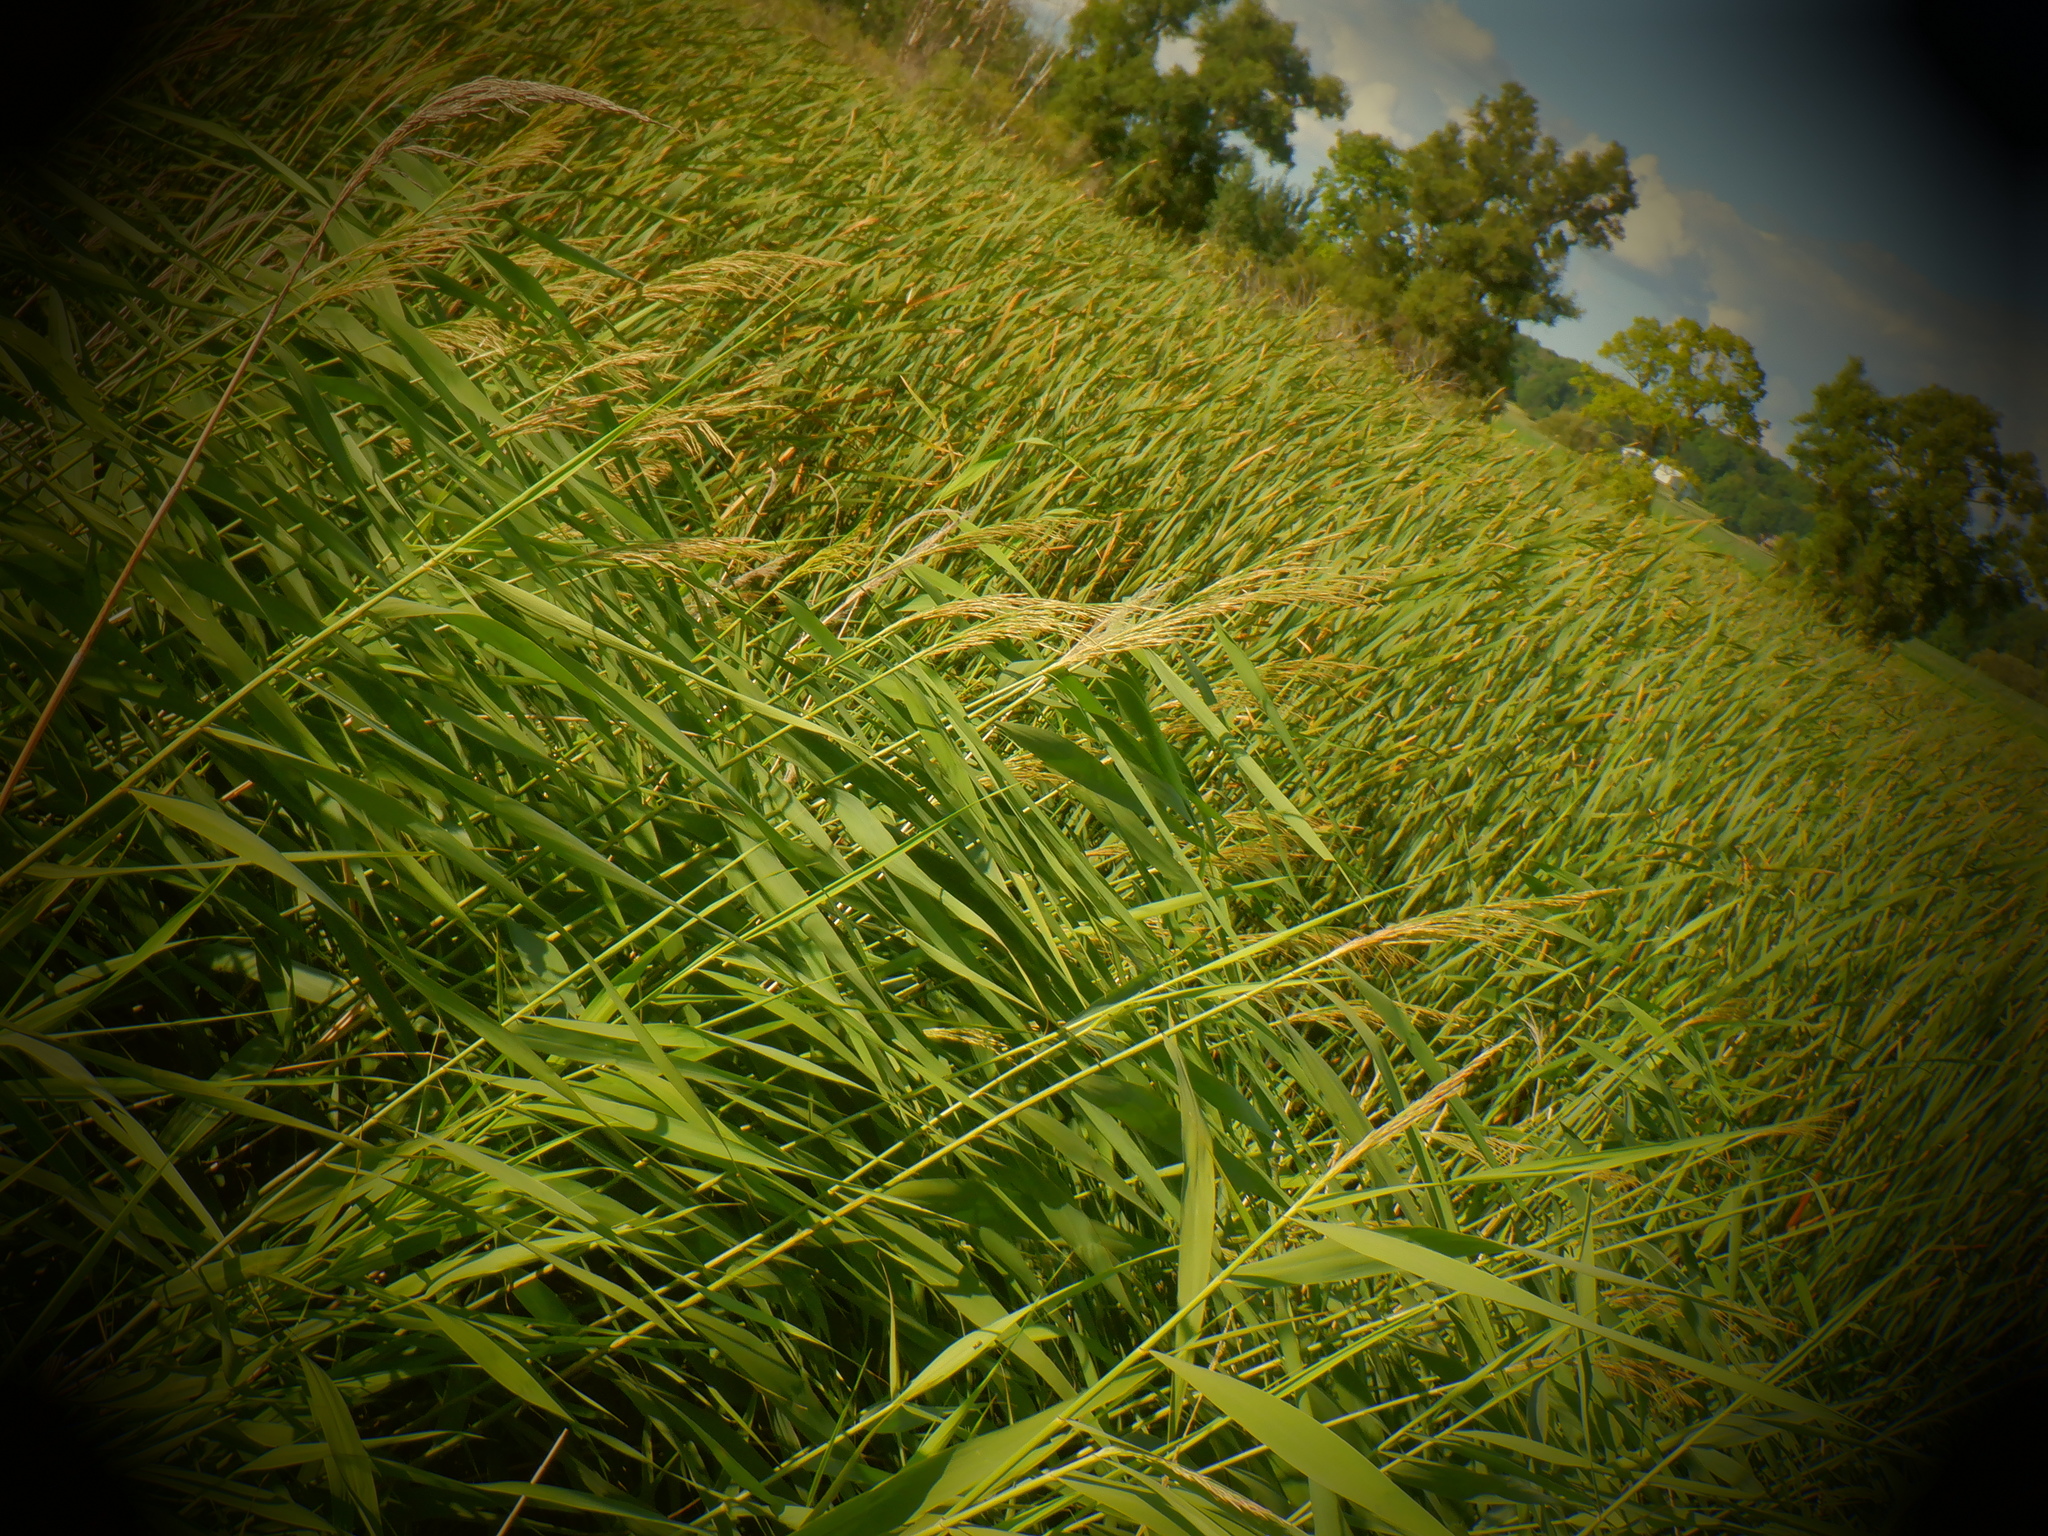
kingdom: Plantae
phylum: Tracheophyta
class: Liliopsida
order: Poales
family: Poaceae
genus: Phragmites
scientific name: Phragmites australis
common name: Common reed
